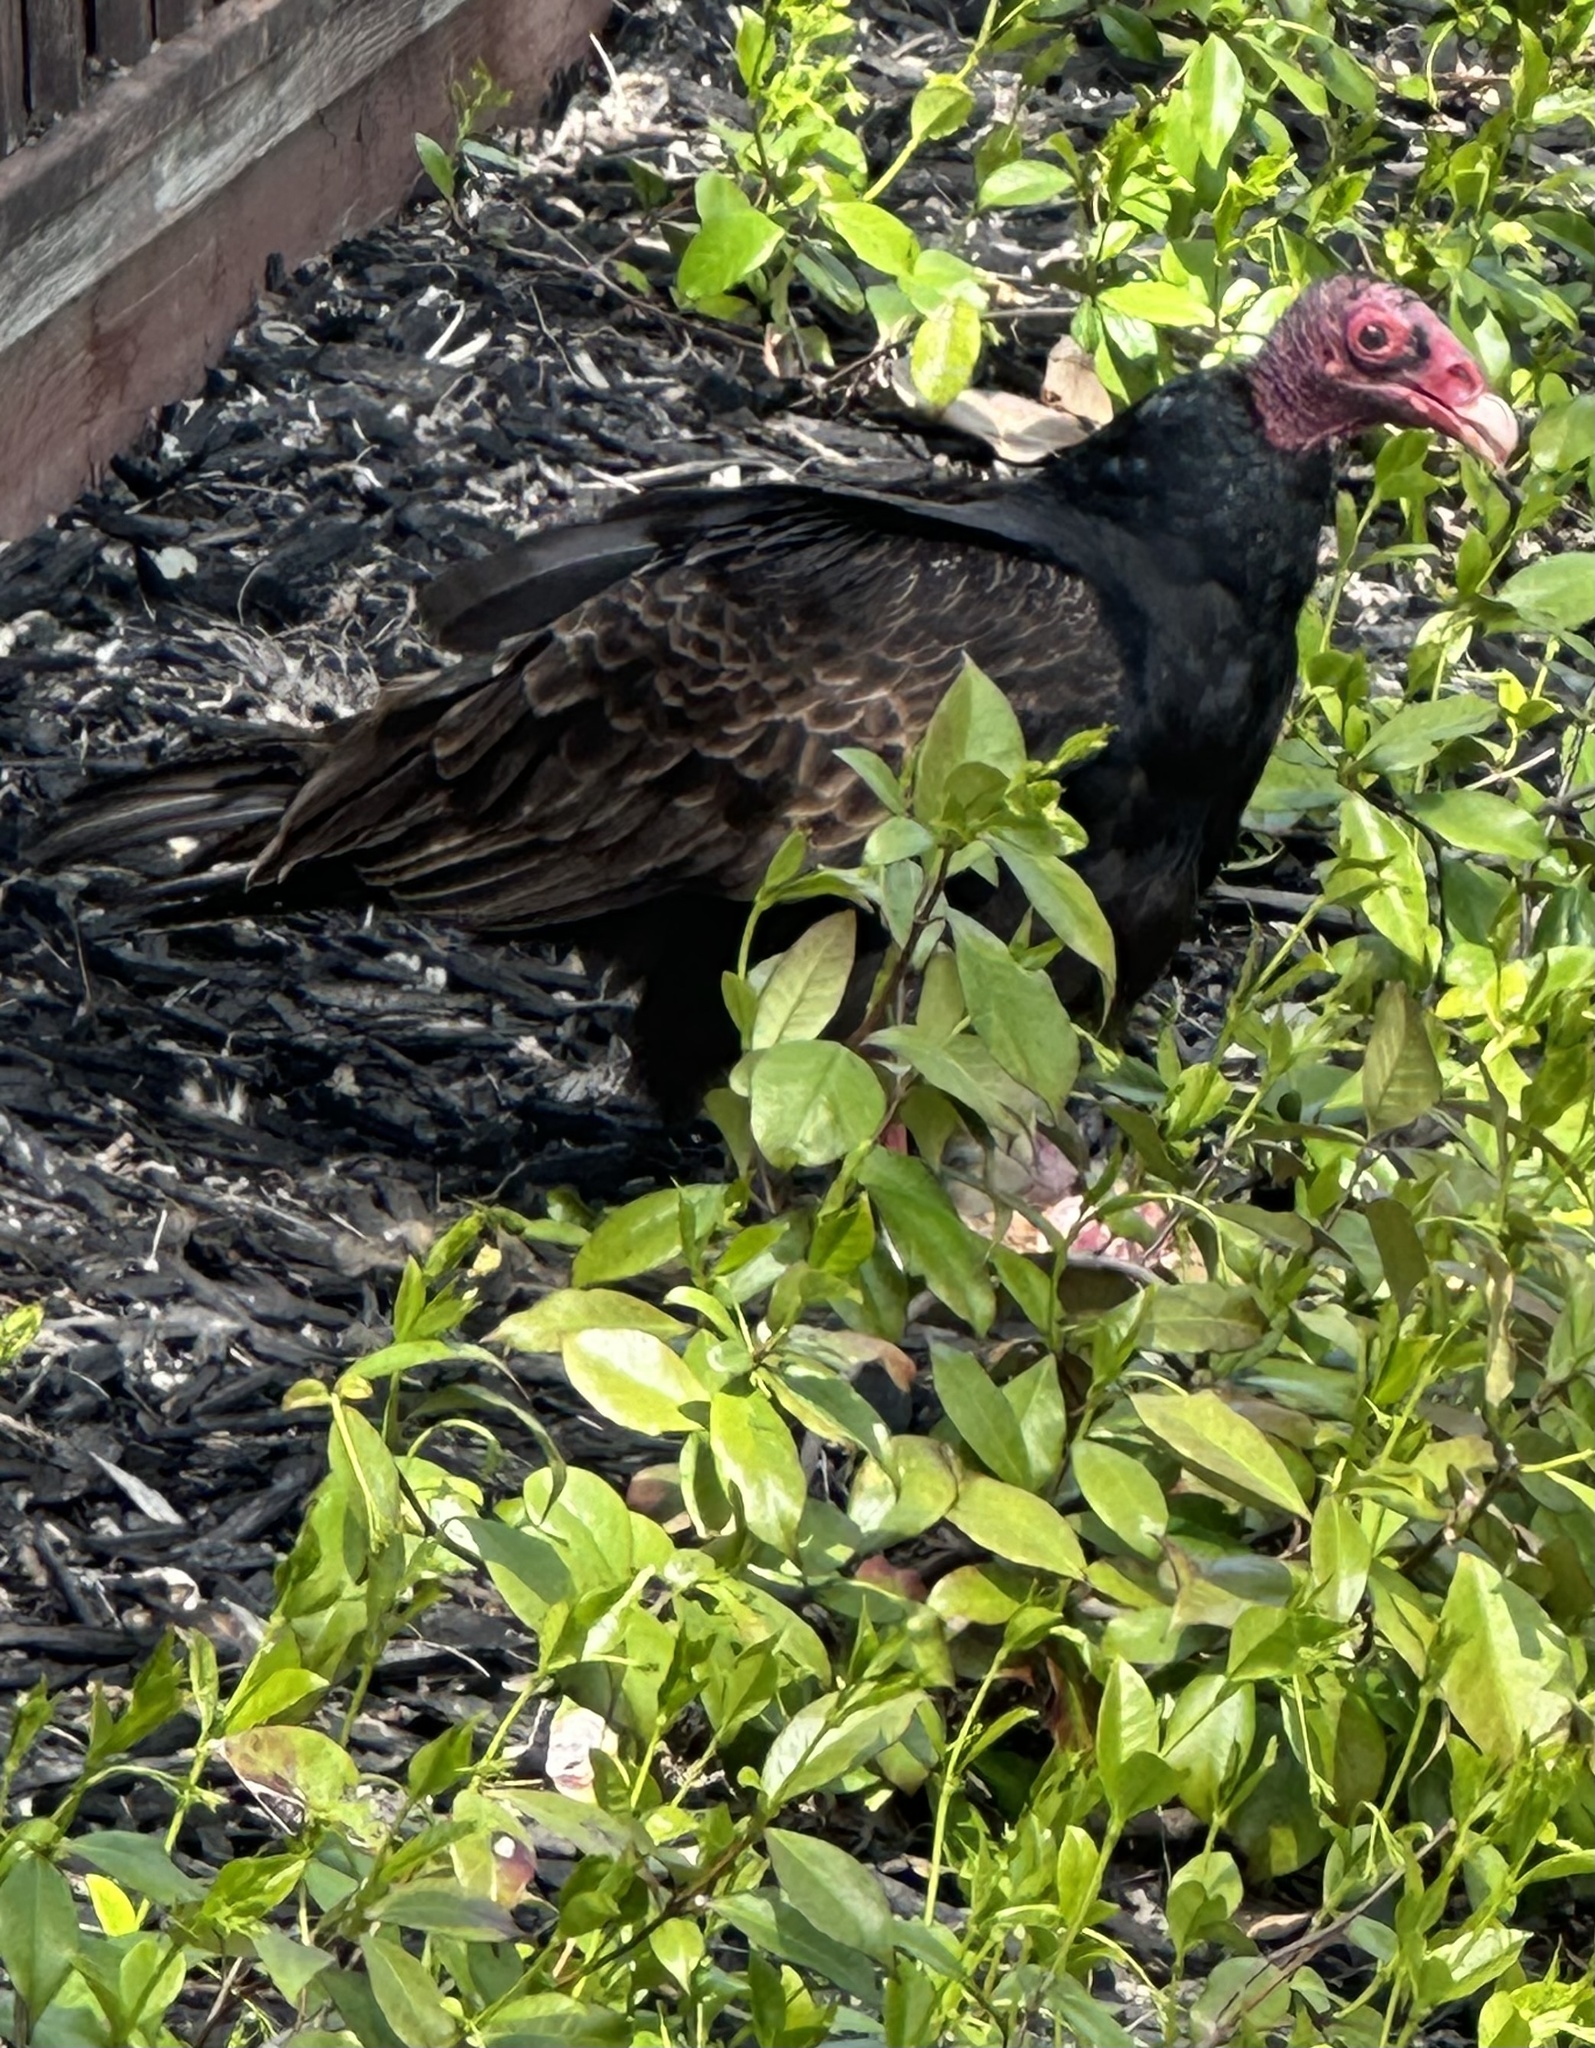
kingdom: Animalia
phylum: Chordata
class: Aves
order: Accipitriformes
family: Cathartidae
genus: Cathartes
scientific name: Cathartes aura
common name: Turkey vulture
